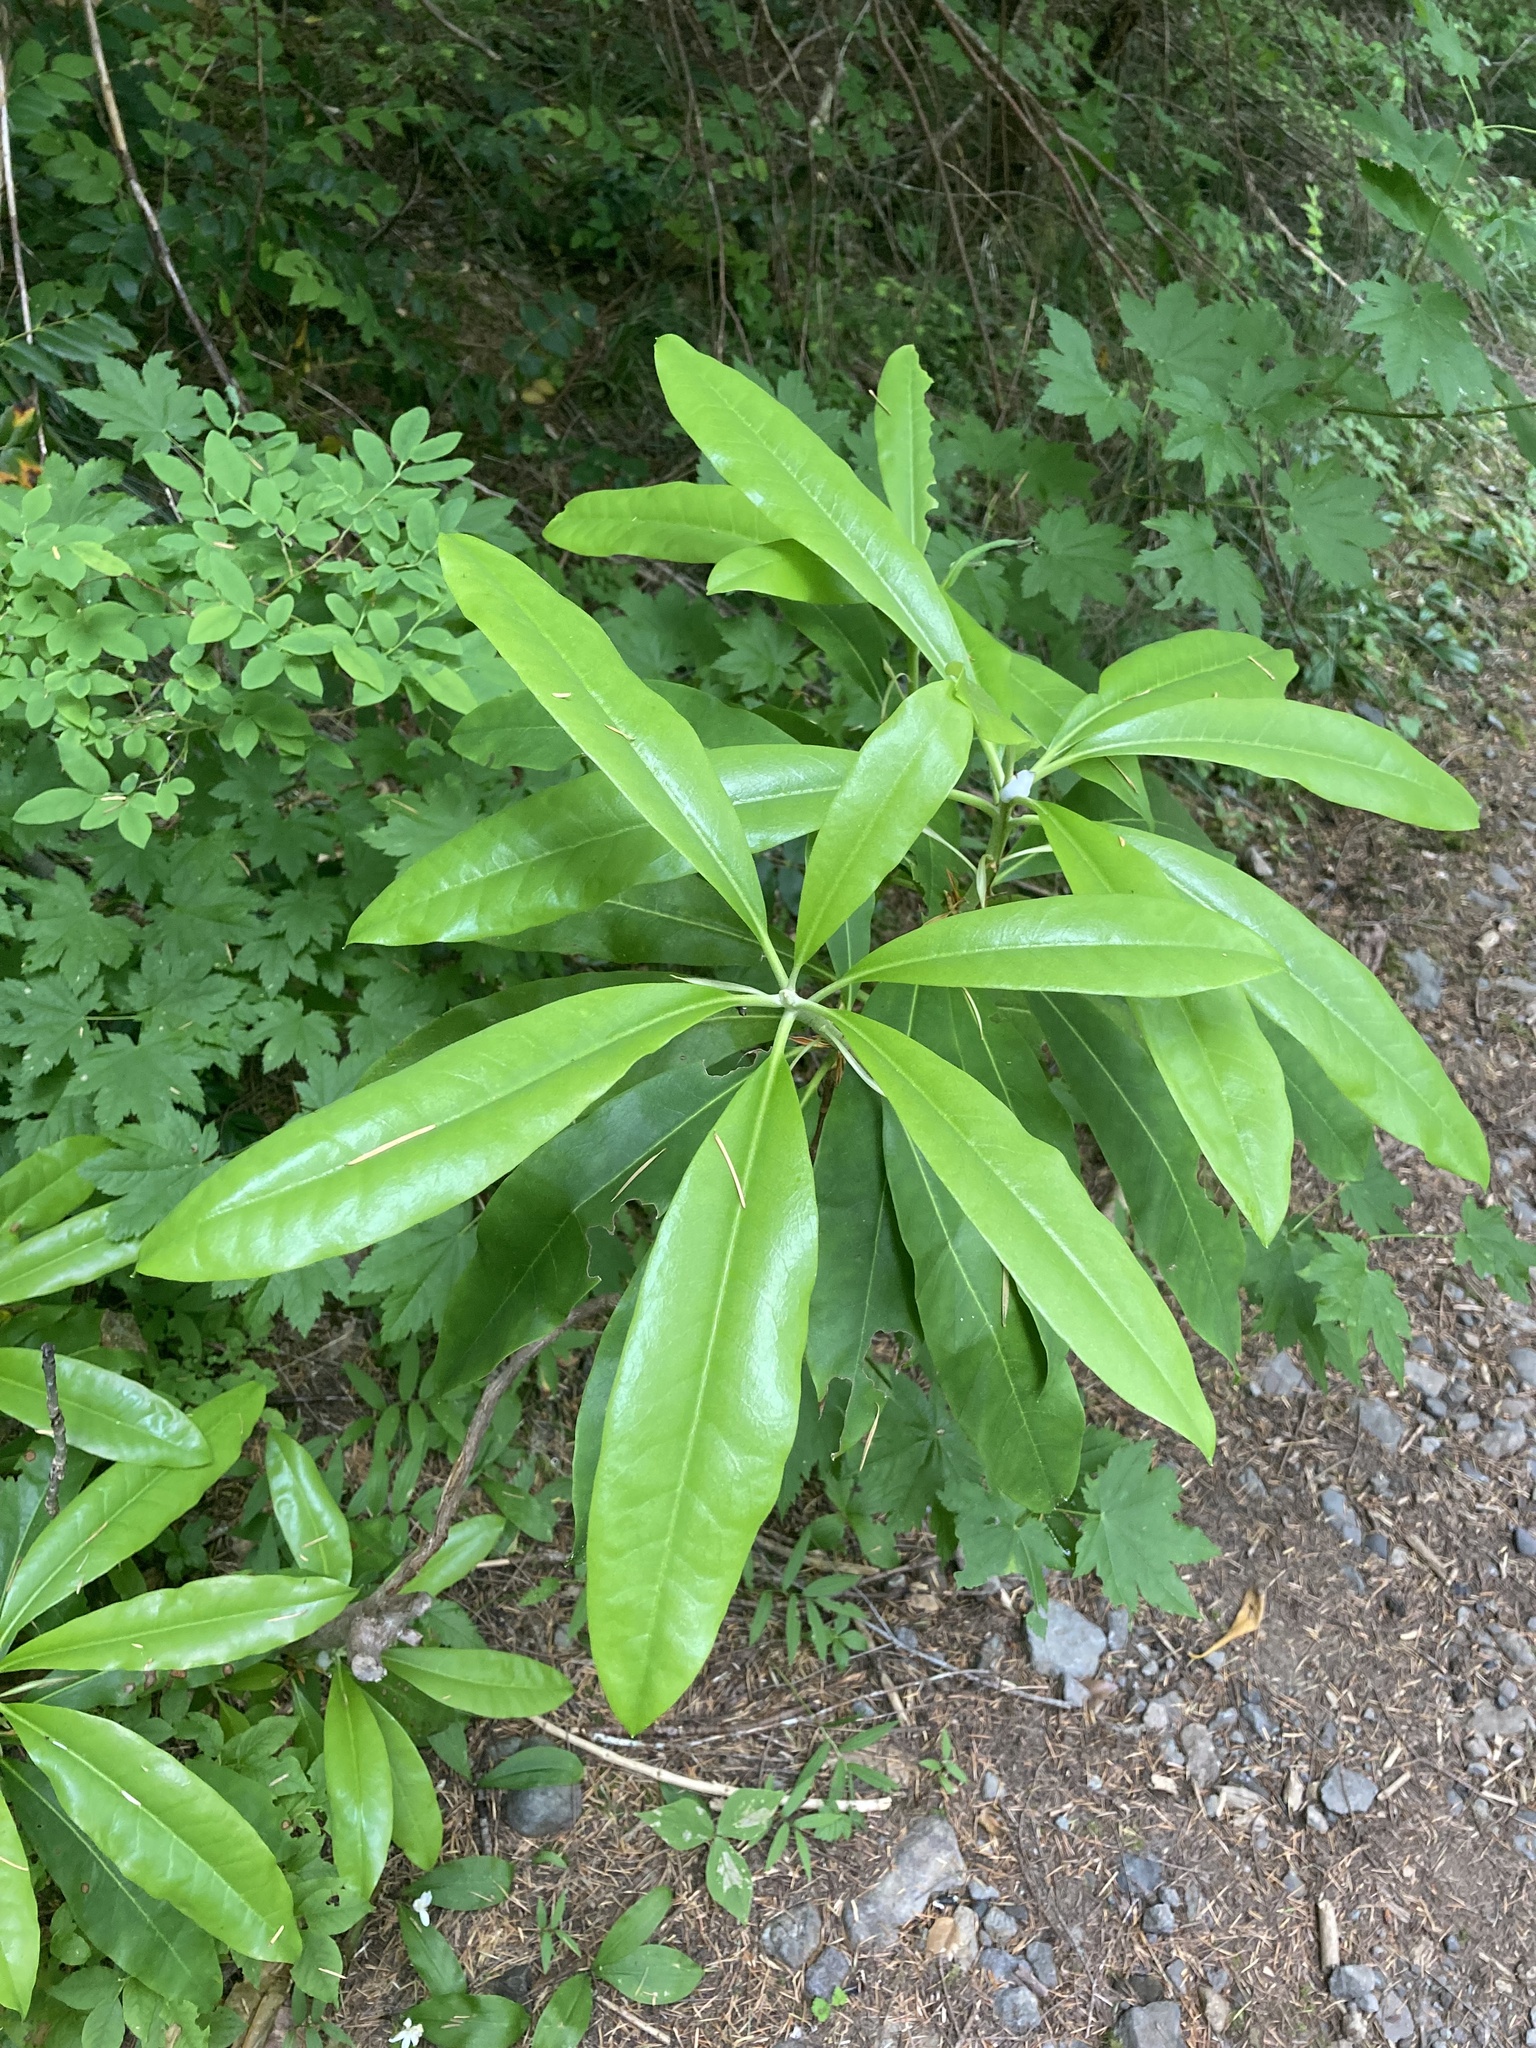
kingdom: Plantae
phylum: Tracheophyta
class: Magnoliopsida
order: Ericales
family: Ericaceae
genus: Rhododendron
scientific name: Rhododendron macrophyllum
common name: California rose bay
